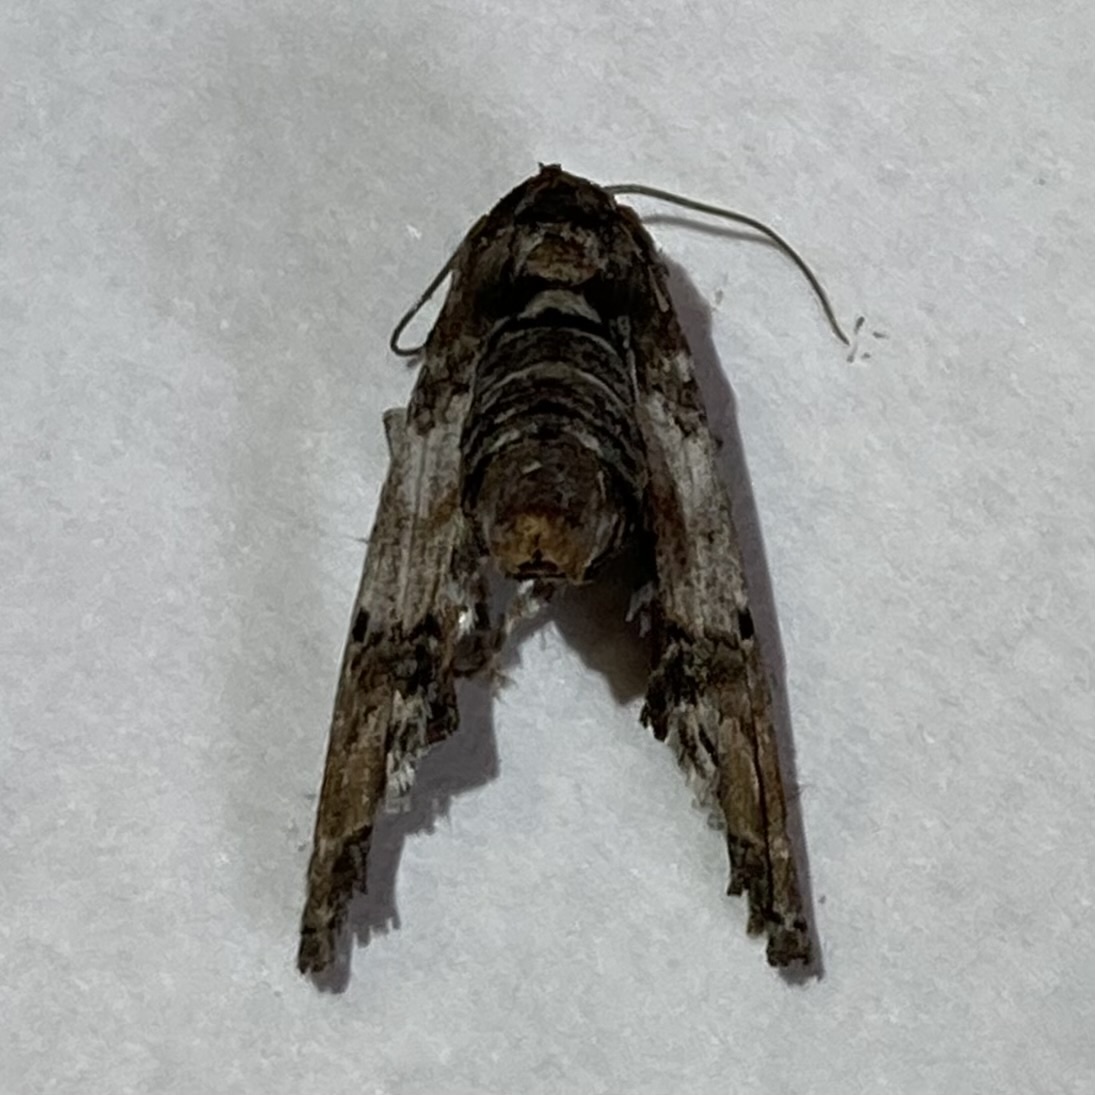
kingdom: Animalia
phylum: Arthropoda
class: Insecta
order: Lepidoptera
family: Euteliidae
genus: Marathyssa
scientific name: Marathyssa inficita
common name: Dark marathyssa moth
